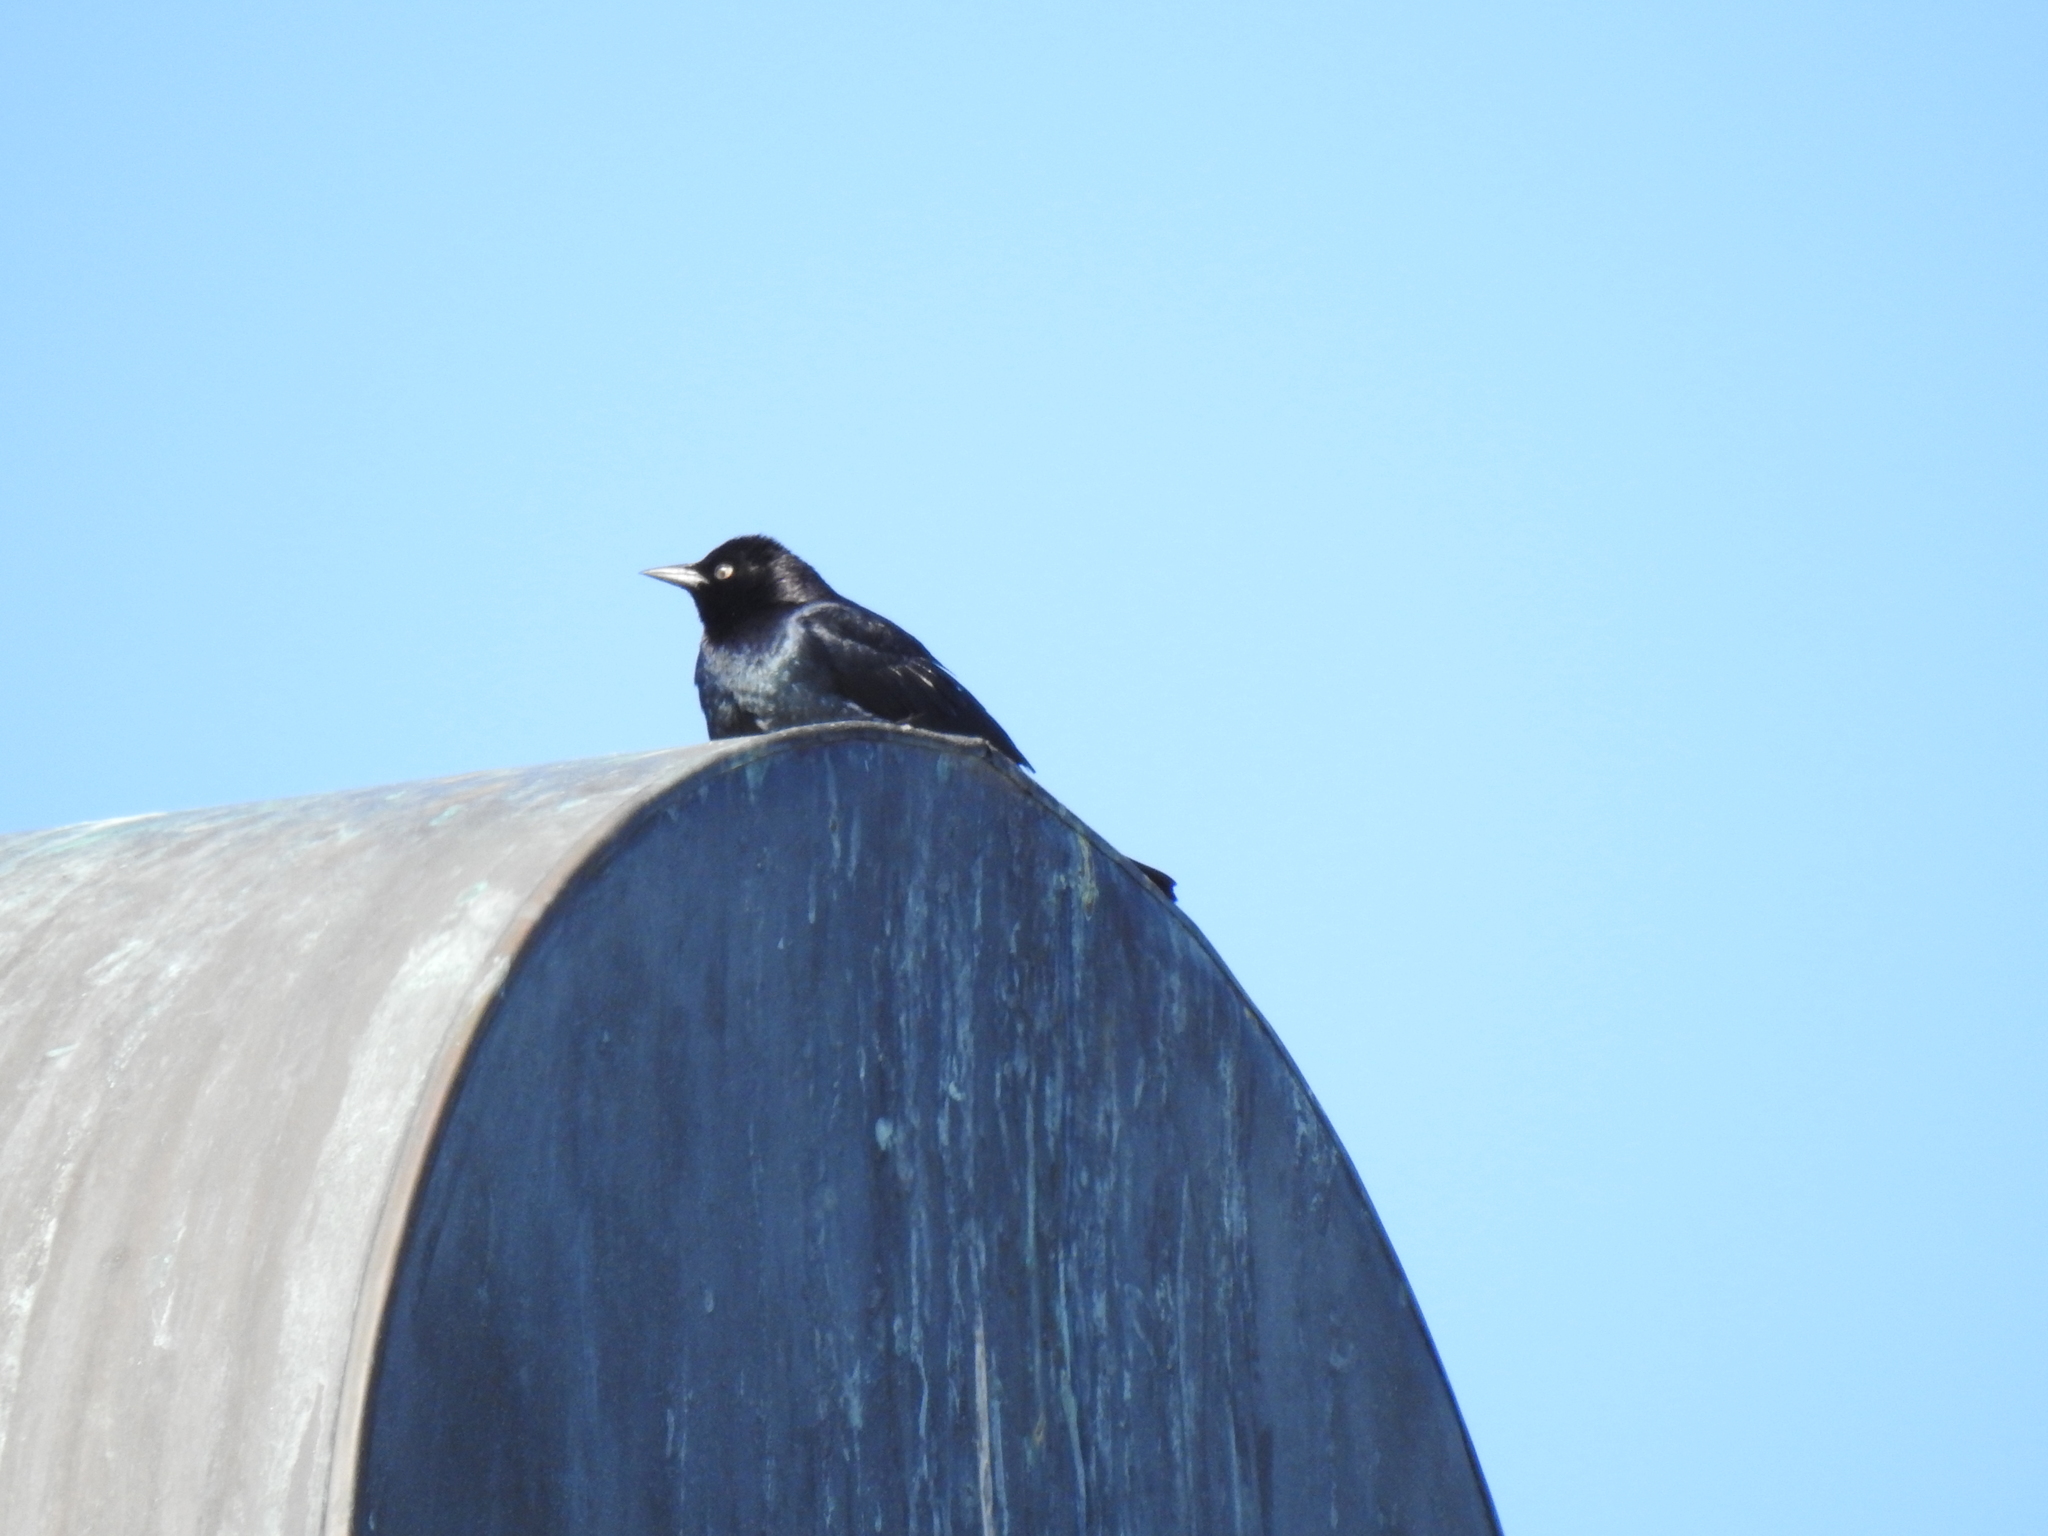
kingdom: Animalia
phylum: Chordata
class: Aves
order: Passeriformes
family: Icteridae
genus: Euphagus
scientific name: Euphagus cyanocephalus
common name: Brewer's blackbird
